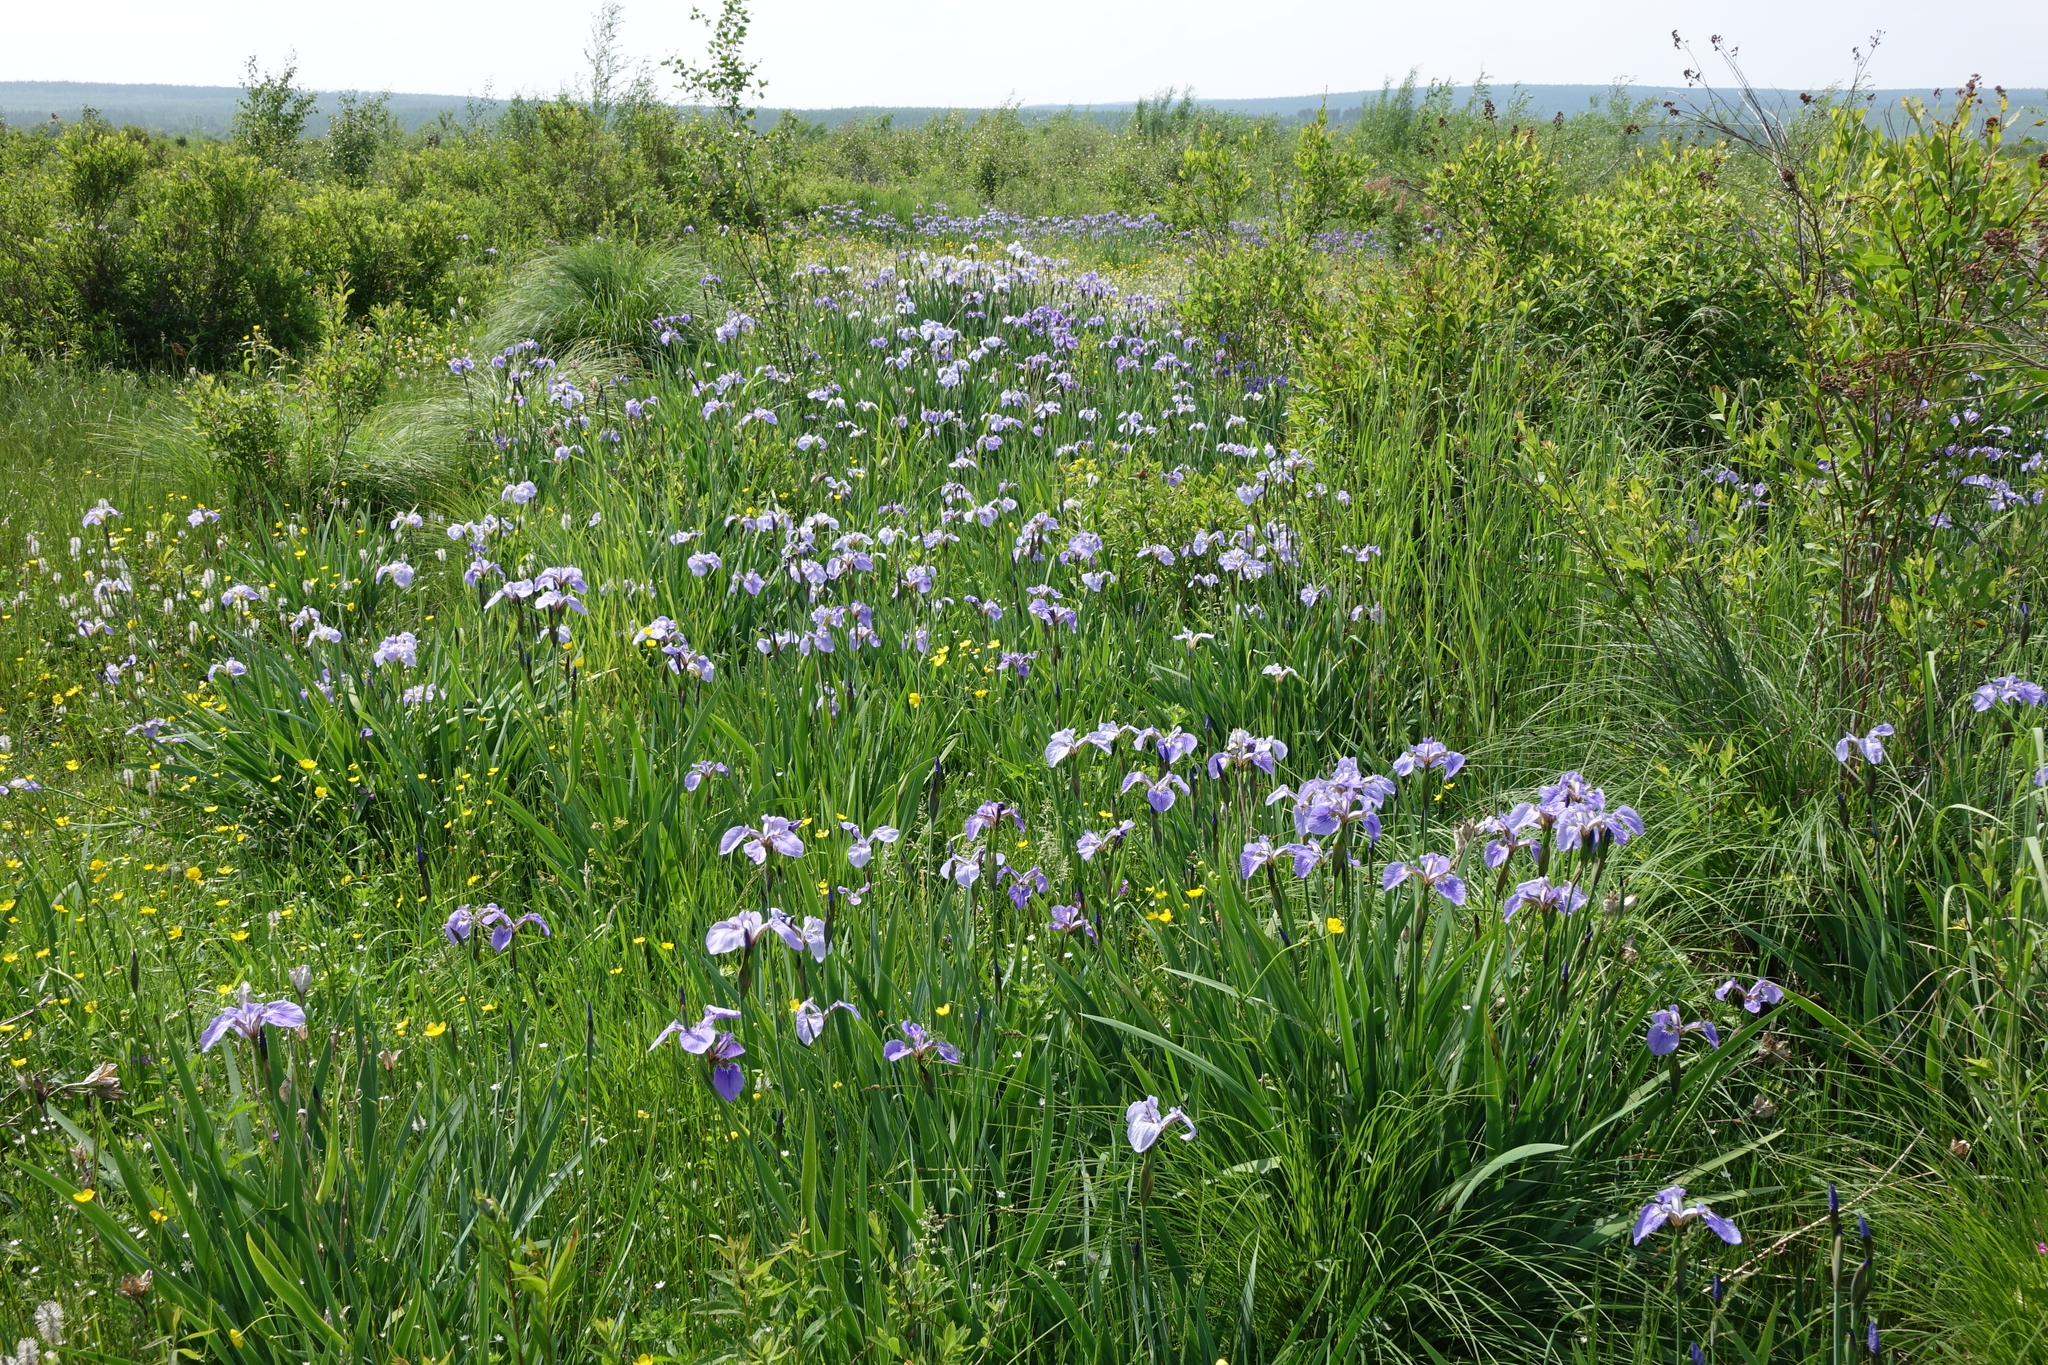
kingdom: Plantae
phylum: Tracheophyta
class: Liliopsida
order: Asparagales
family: Iridaceae
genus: Iris
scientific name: Iris setosa
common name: Arctic blue flag
